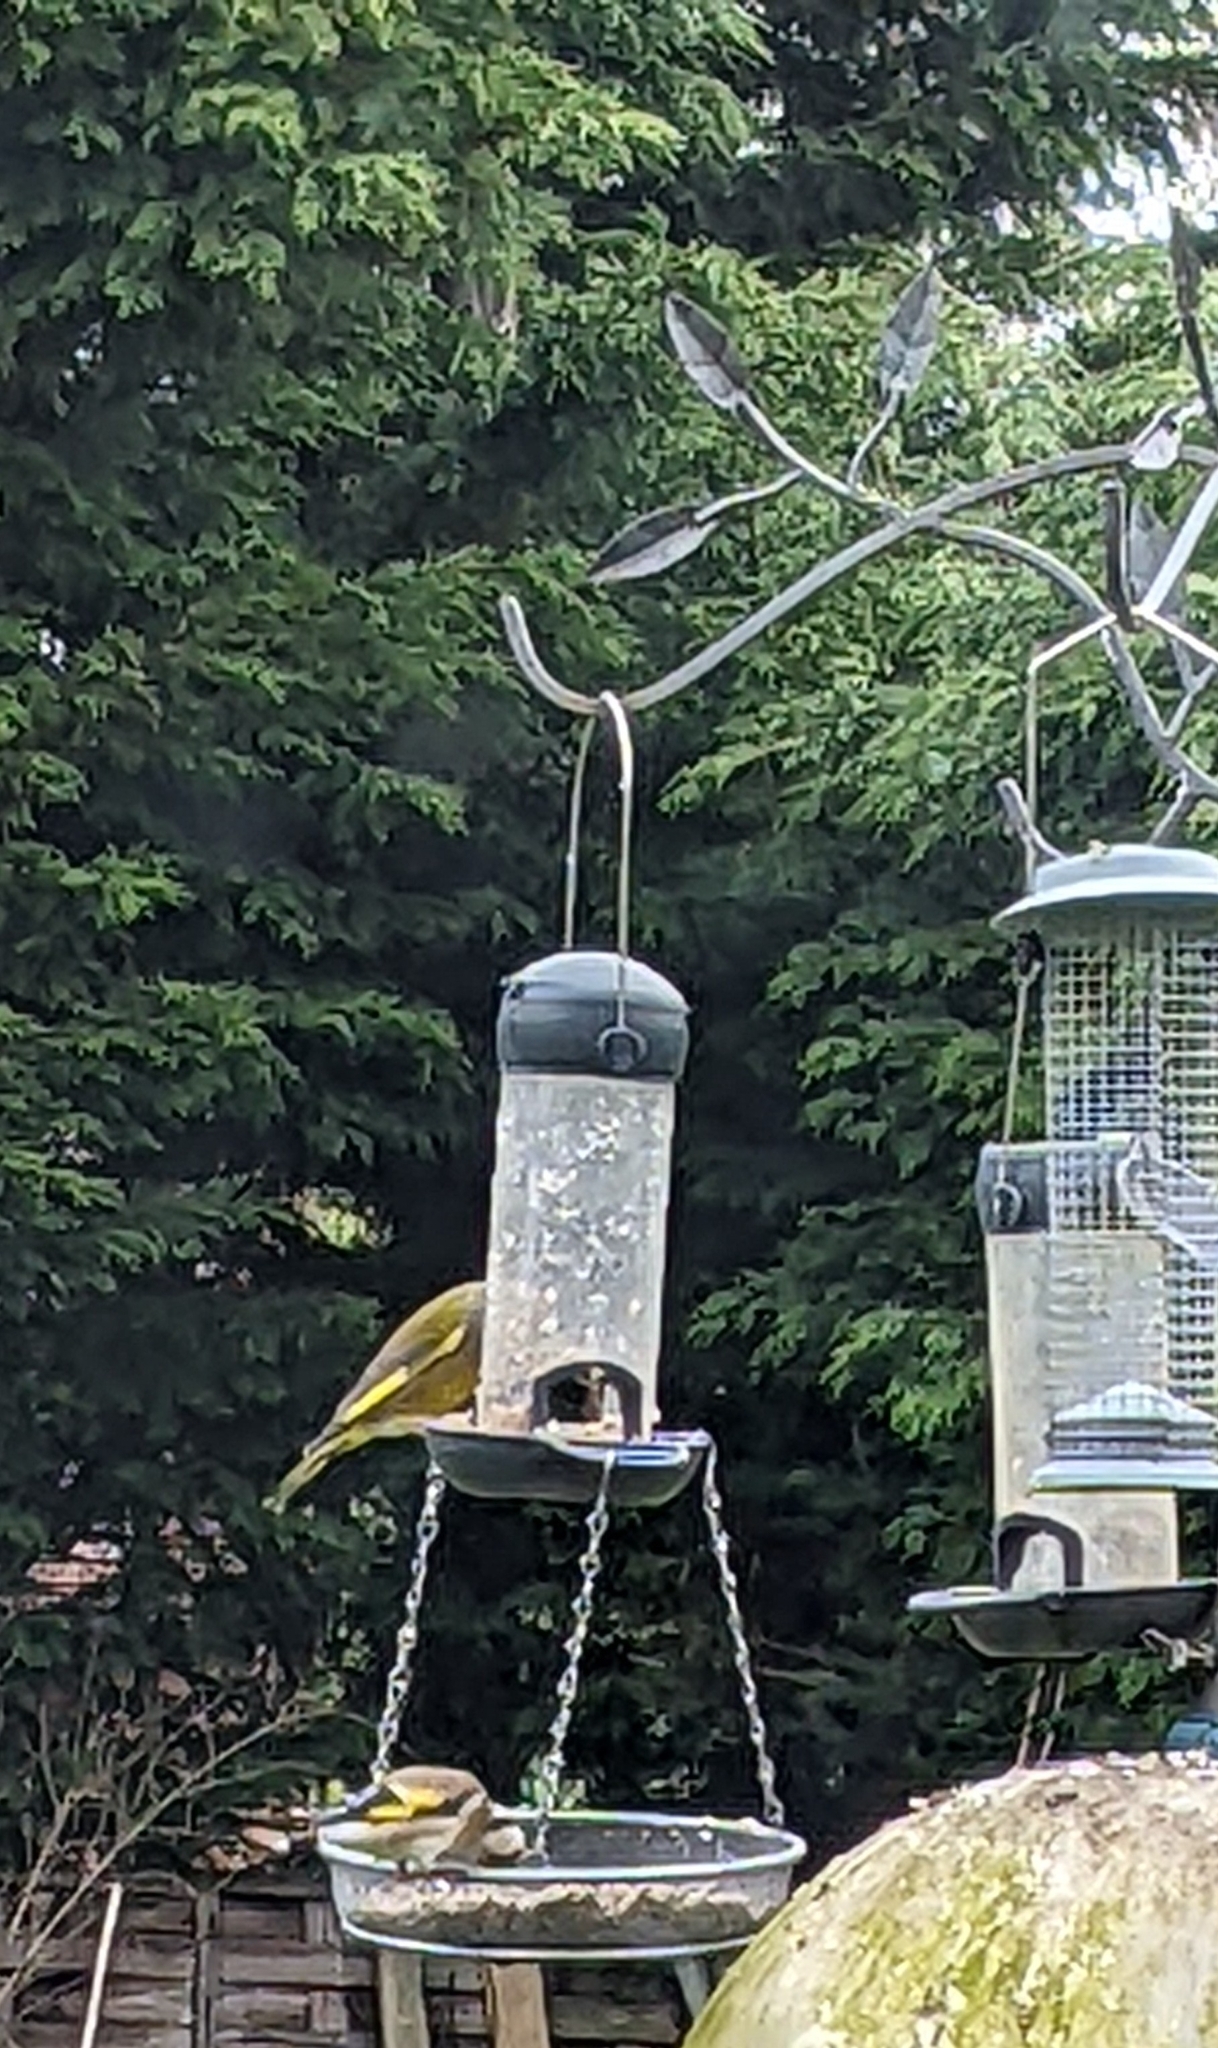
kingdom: Plantae
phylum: Tracheophyta
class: Liliopsida
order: Poales
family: Poaceae
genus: Chloris
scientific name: Chloris chloris
